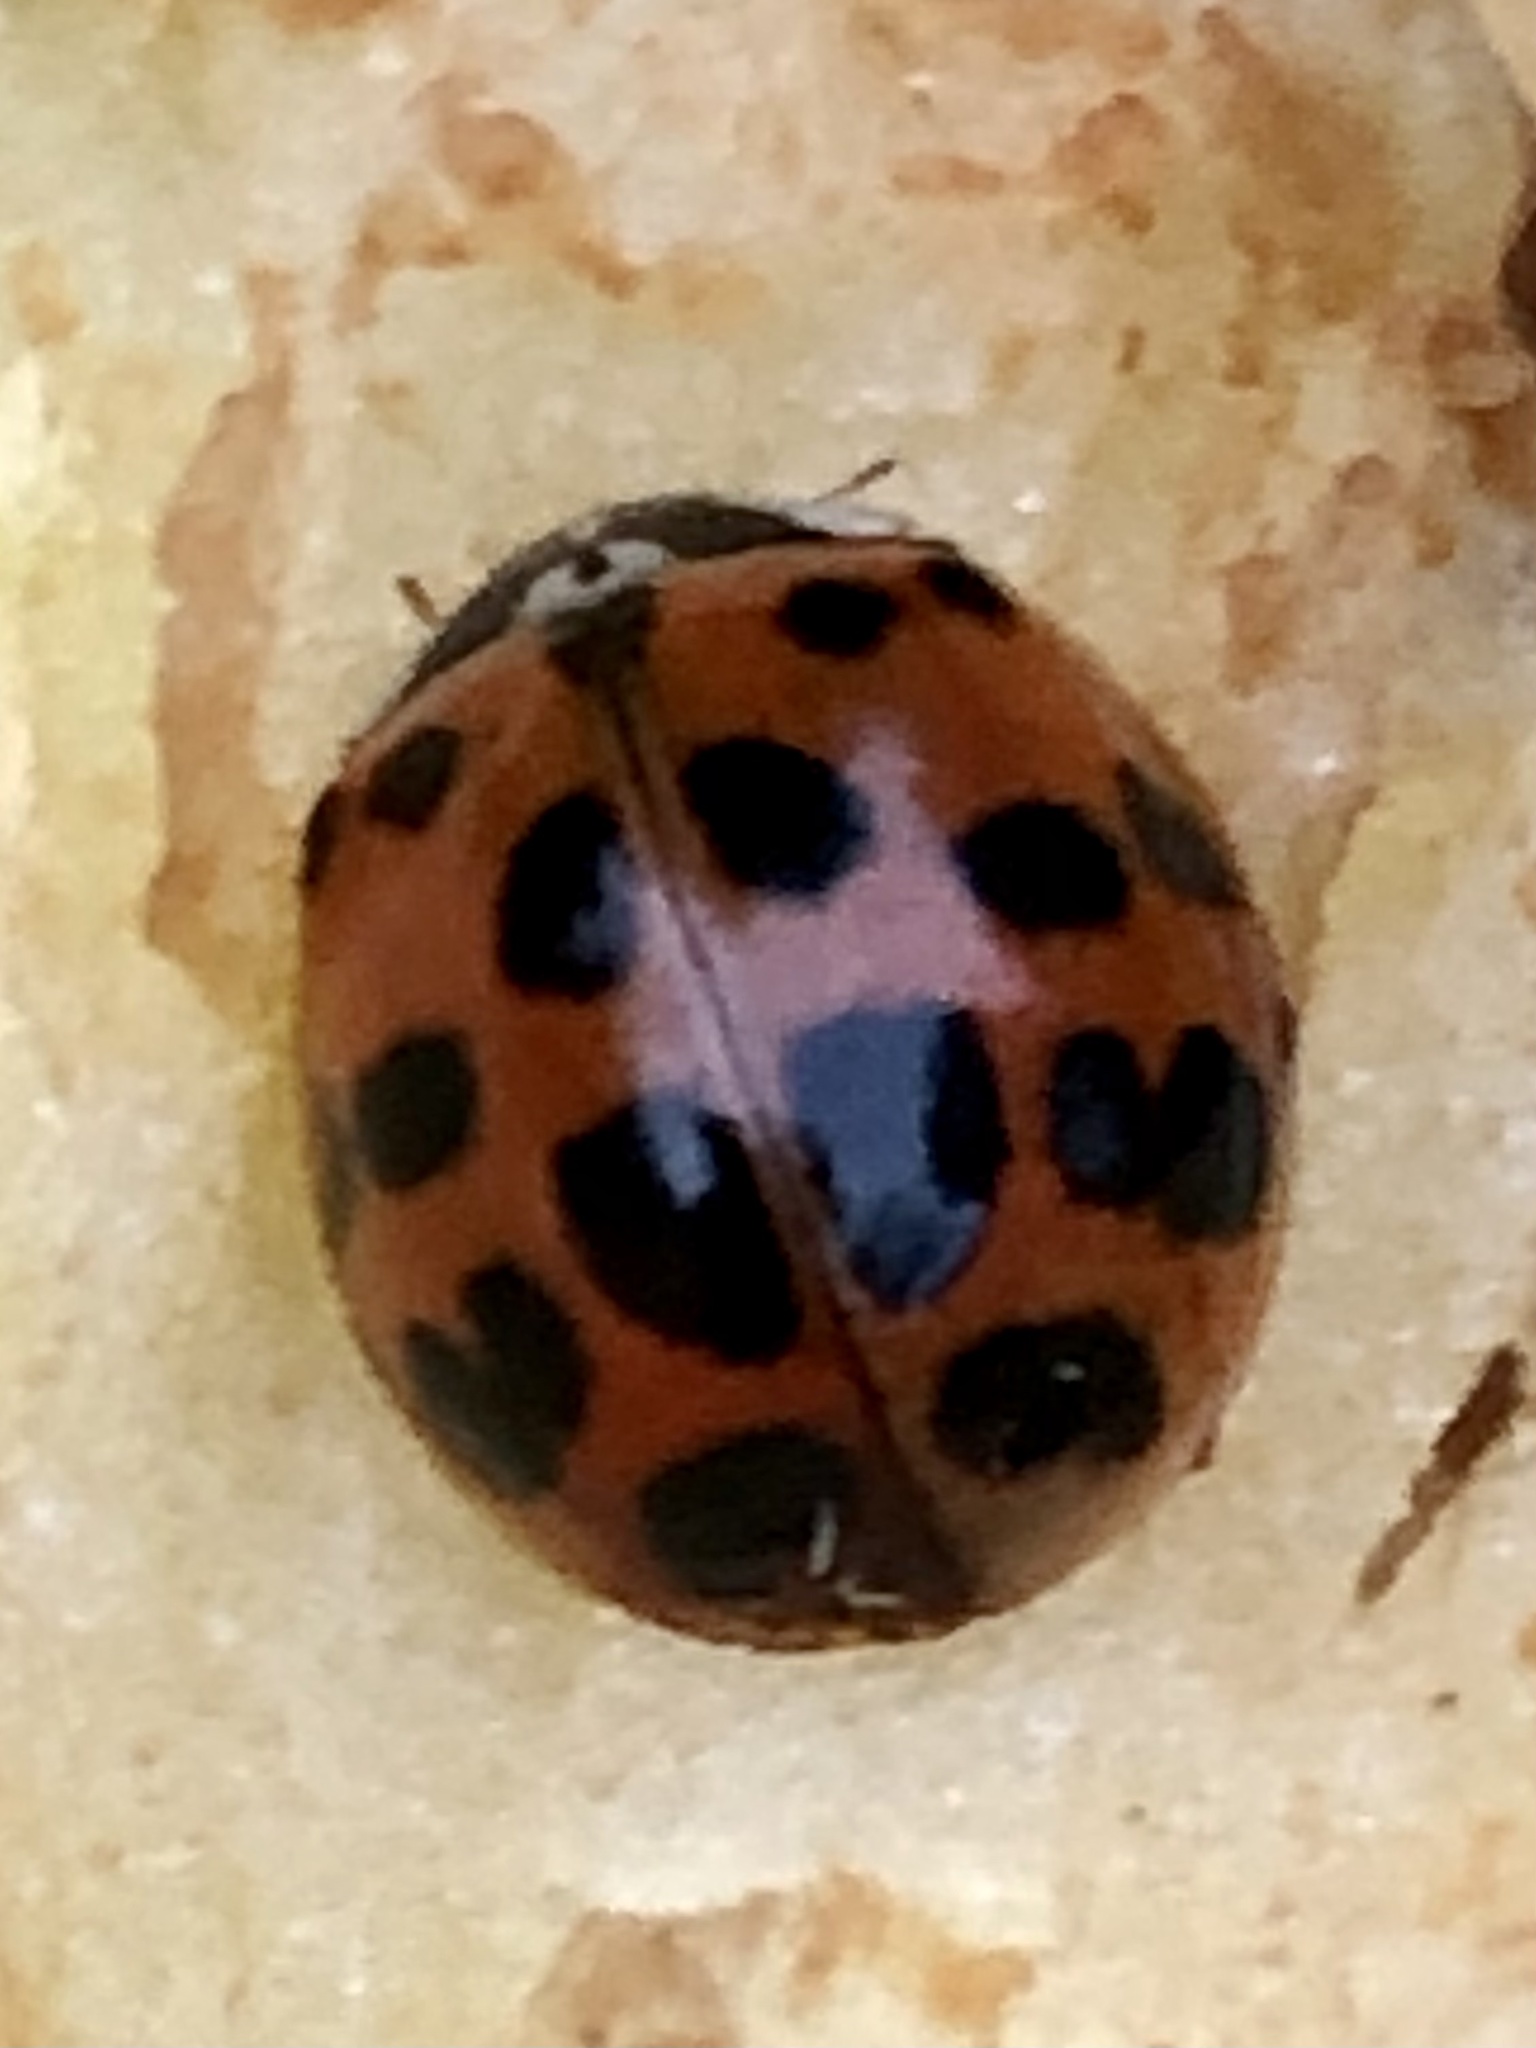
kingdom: Animalia
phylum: Arthropoda
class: Insecta
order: Coleoptera
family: Coccinellidae
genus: Harmonia
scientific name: Harmonia axyridis
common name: Harlequin ladybird
